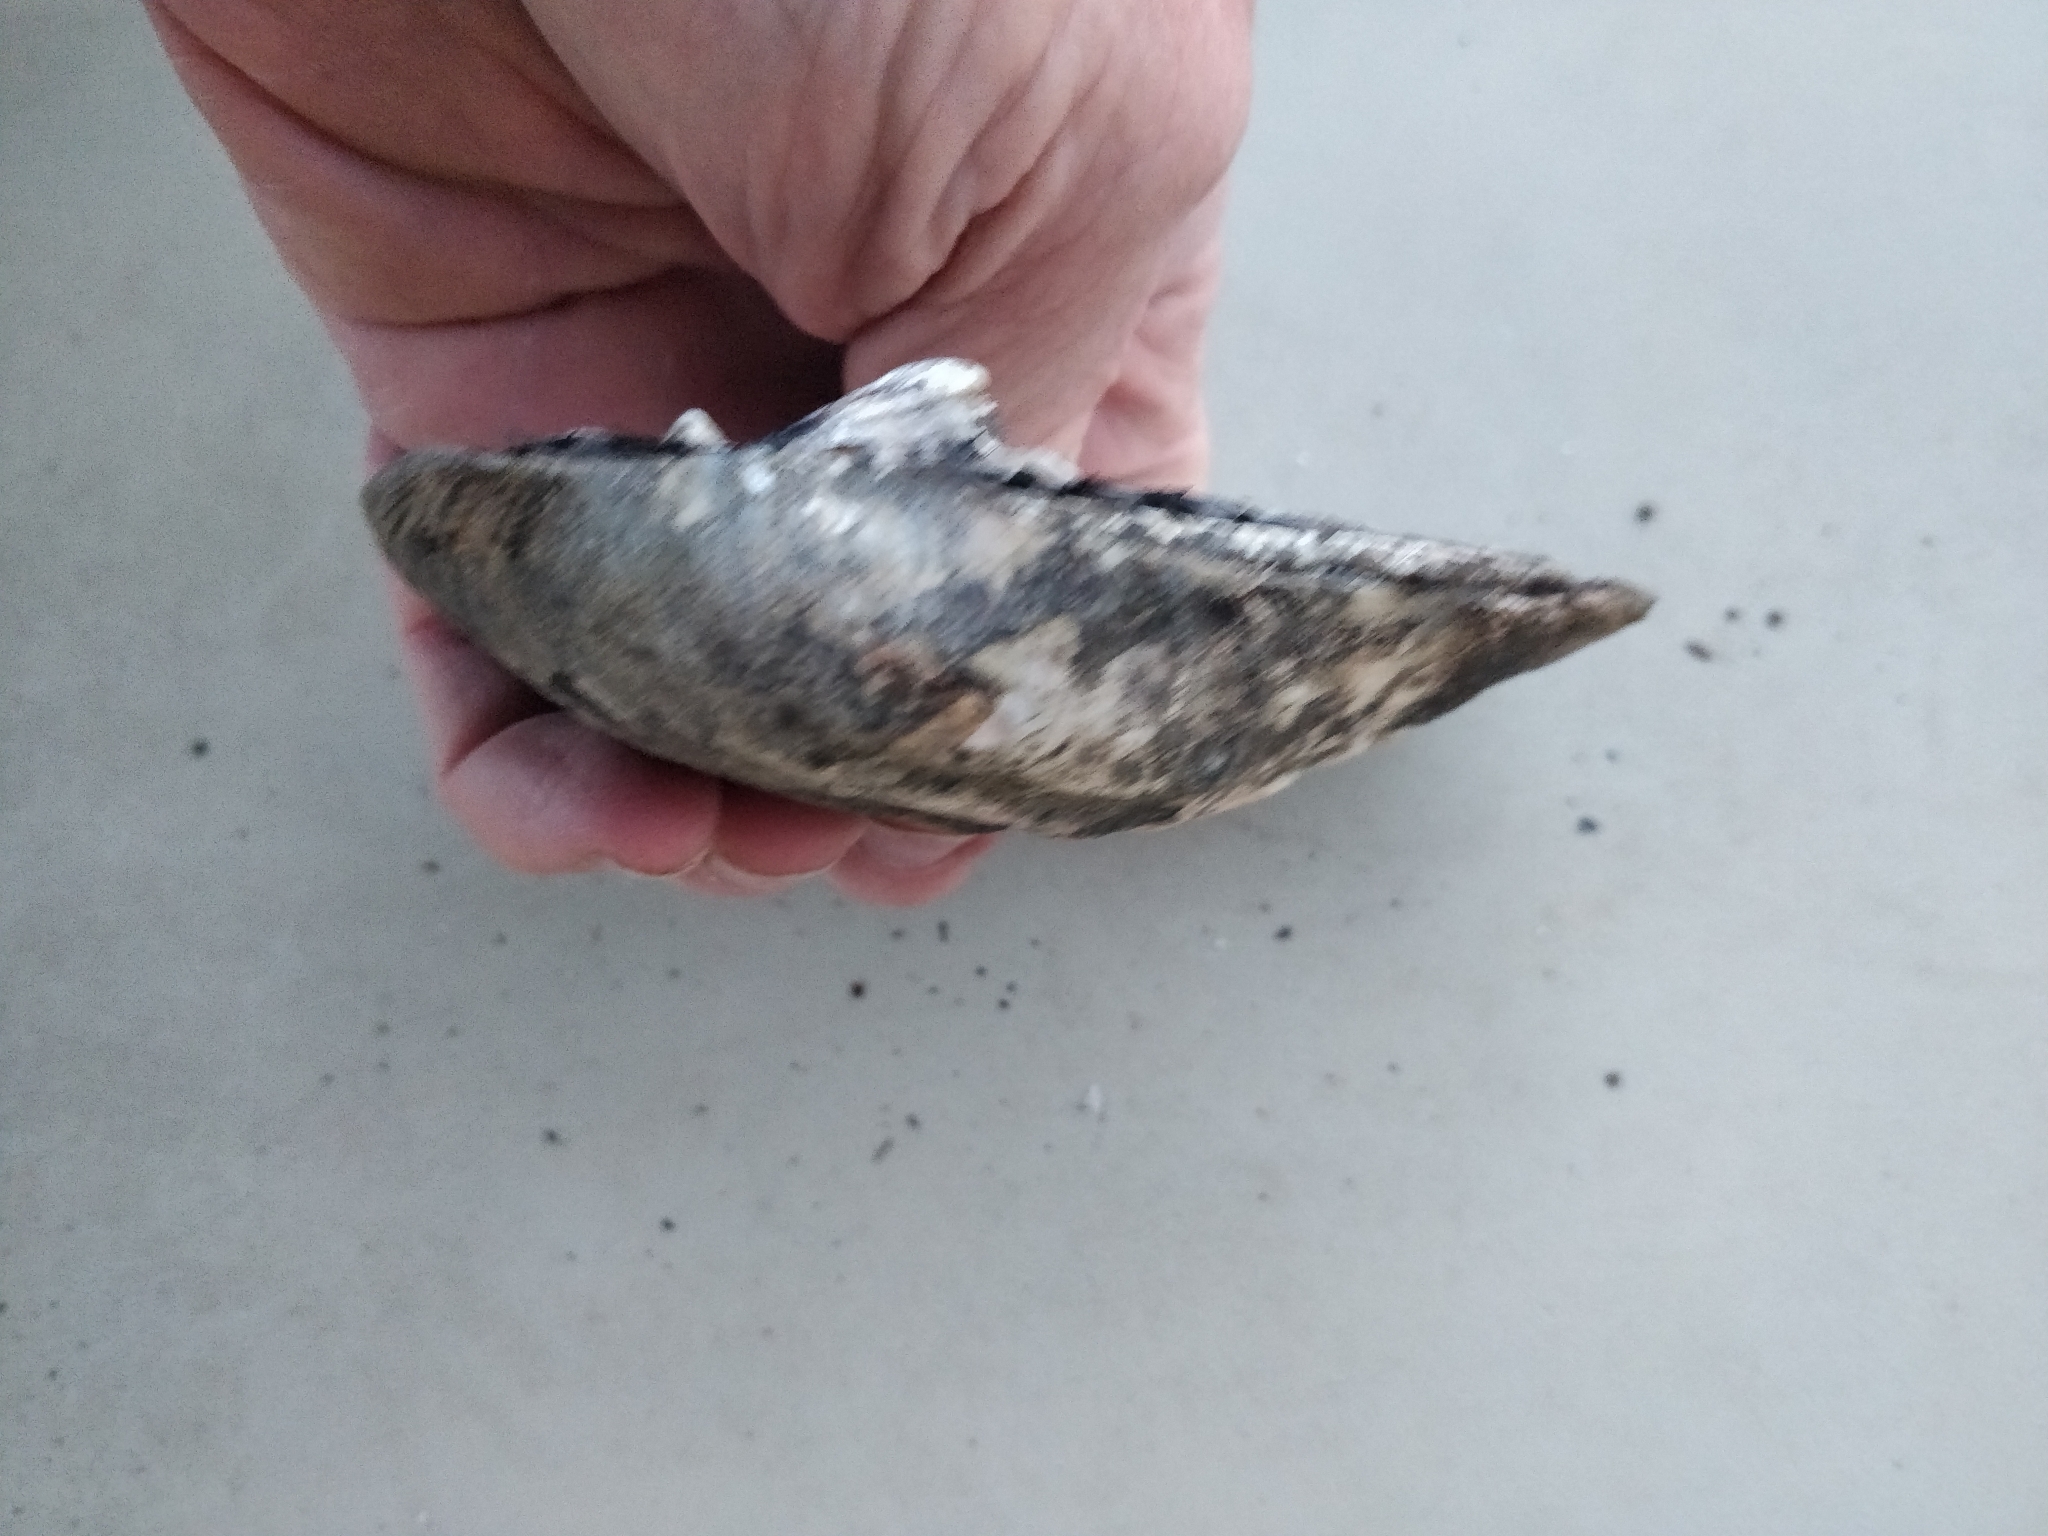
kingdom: Animalia
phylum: Mollusca
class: Bivalvia
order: Unionida
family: Unionidae
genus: Amblema
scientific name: Amblema plicata
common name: Threeridge
